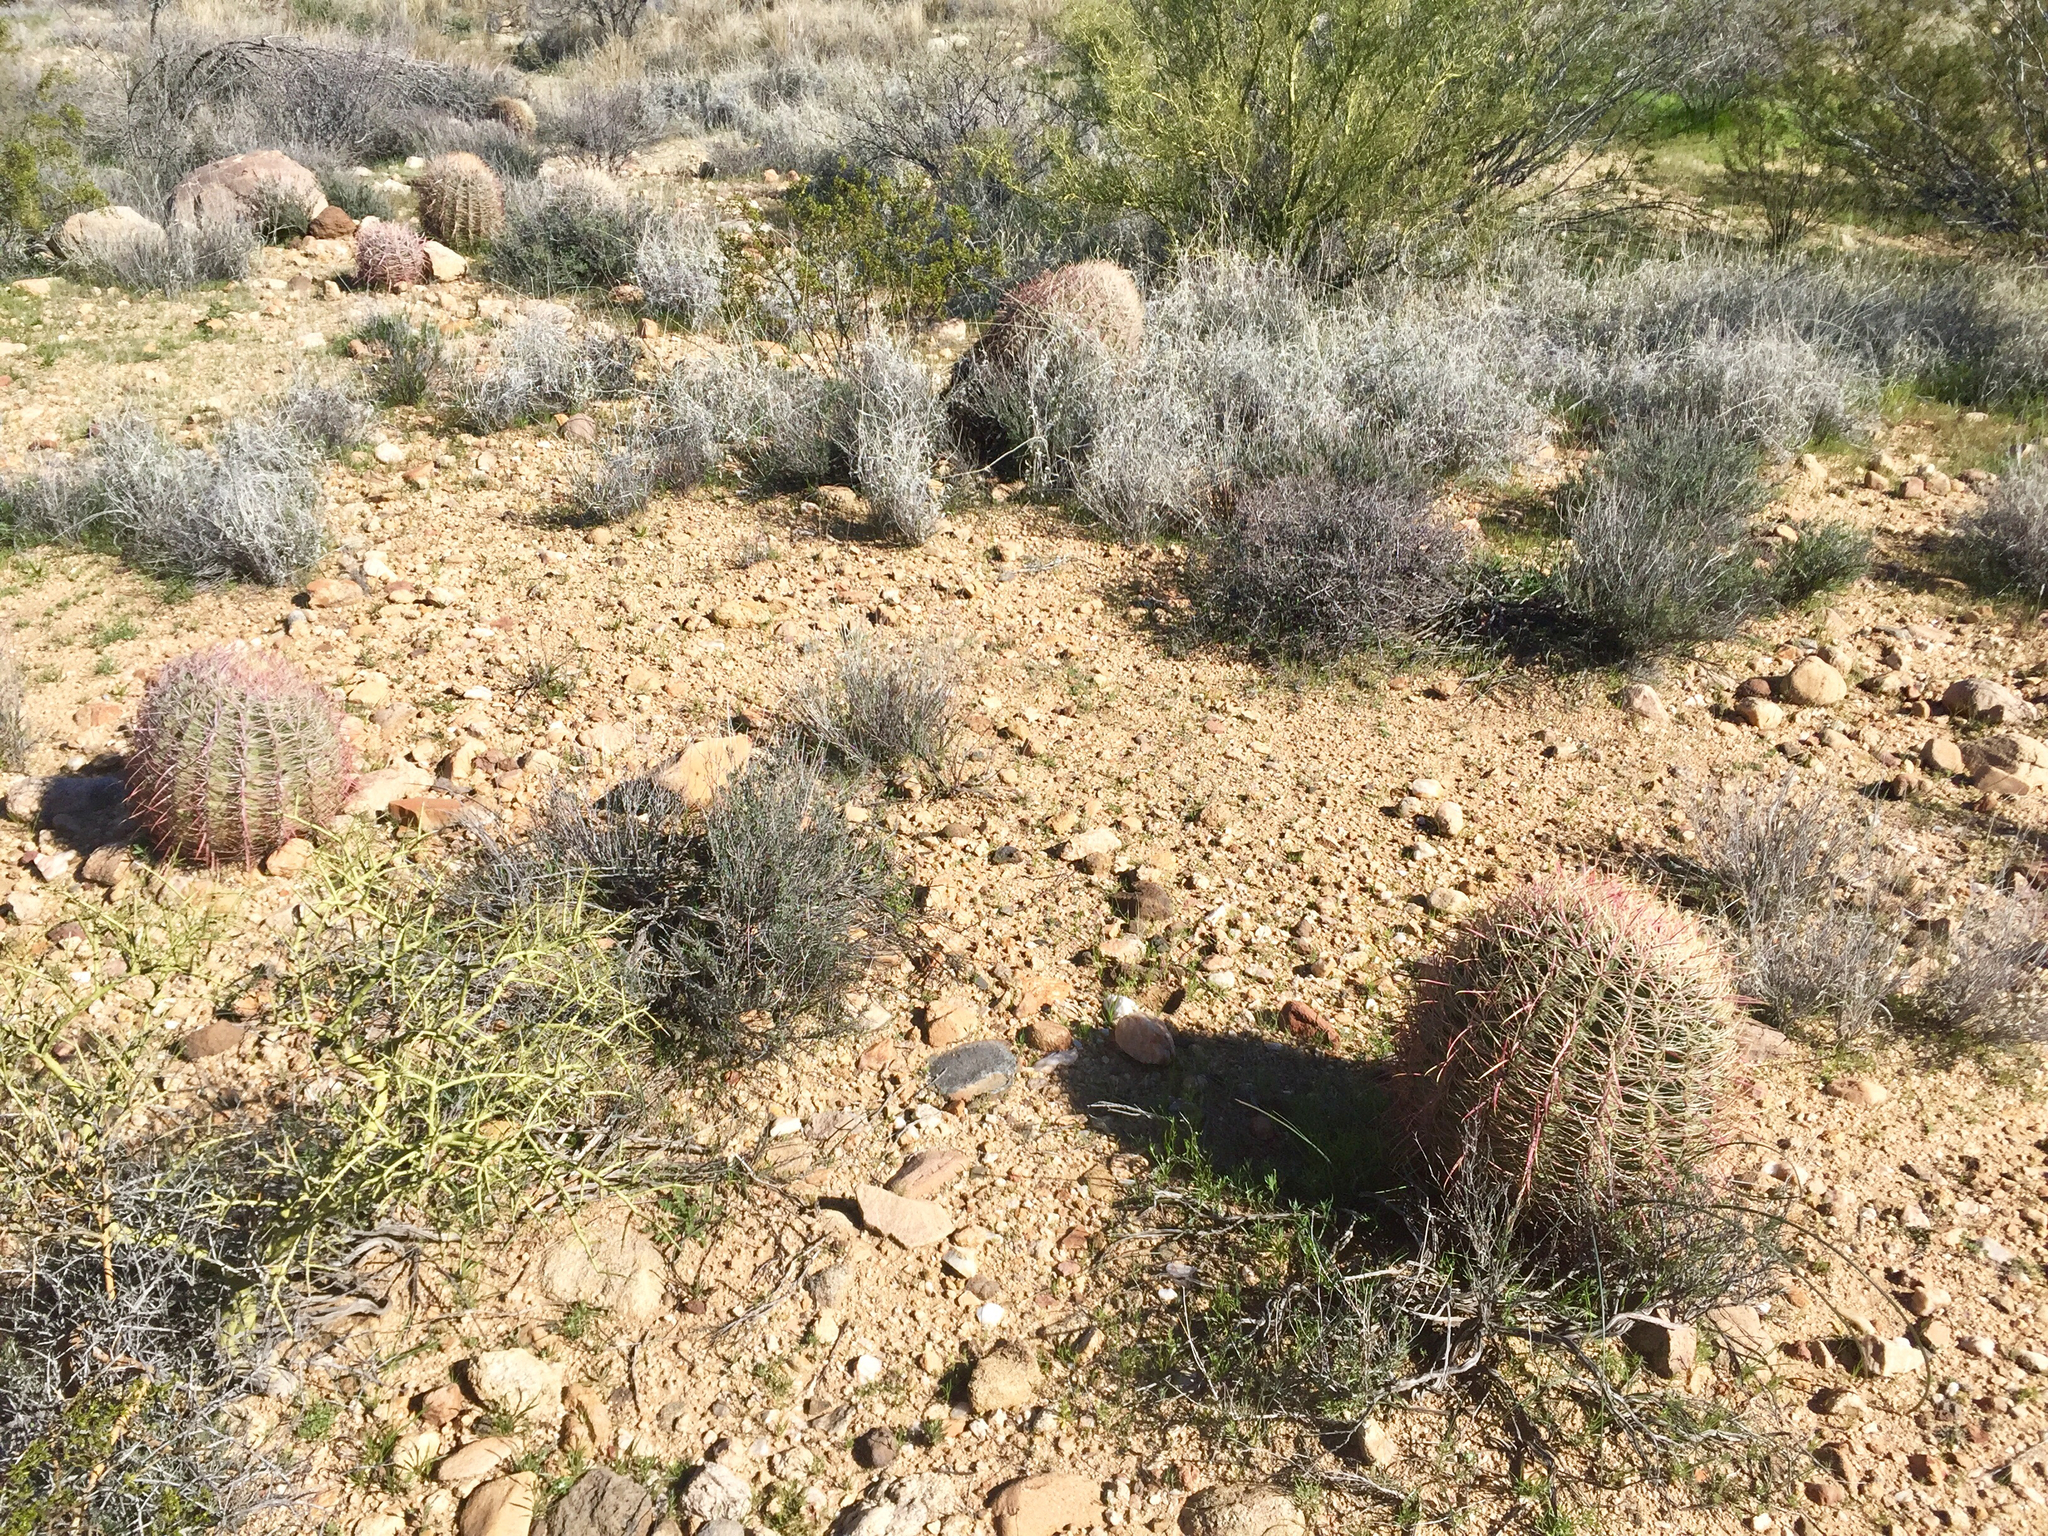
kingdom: Plantae
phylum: Tracheophyta
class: Magnoliopsida
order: Caryophyllales
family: Cactaceae
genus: Ferocactus
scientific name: Ferocactus cylindraceus
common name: California barrel cactus
